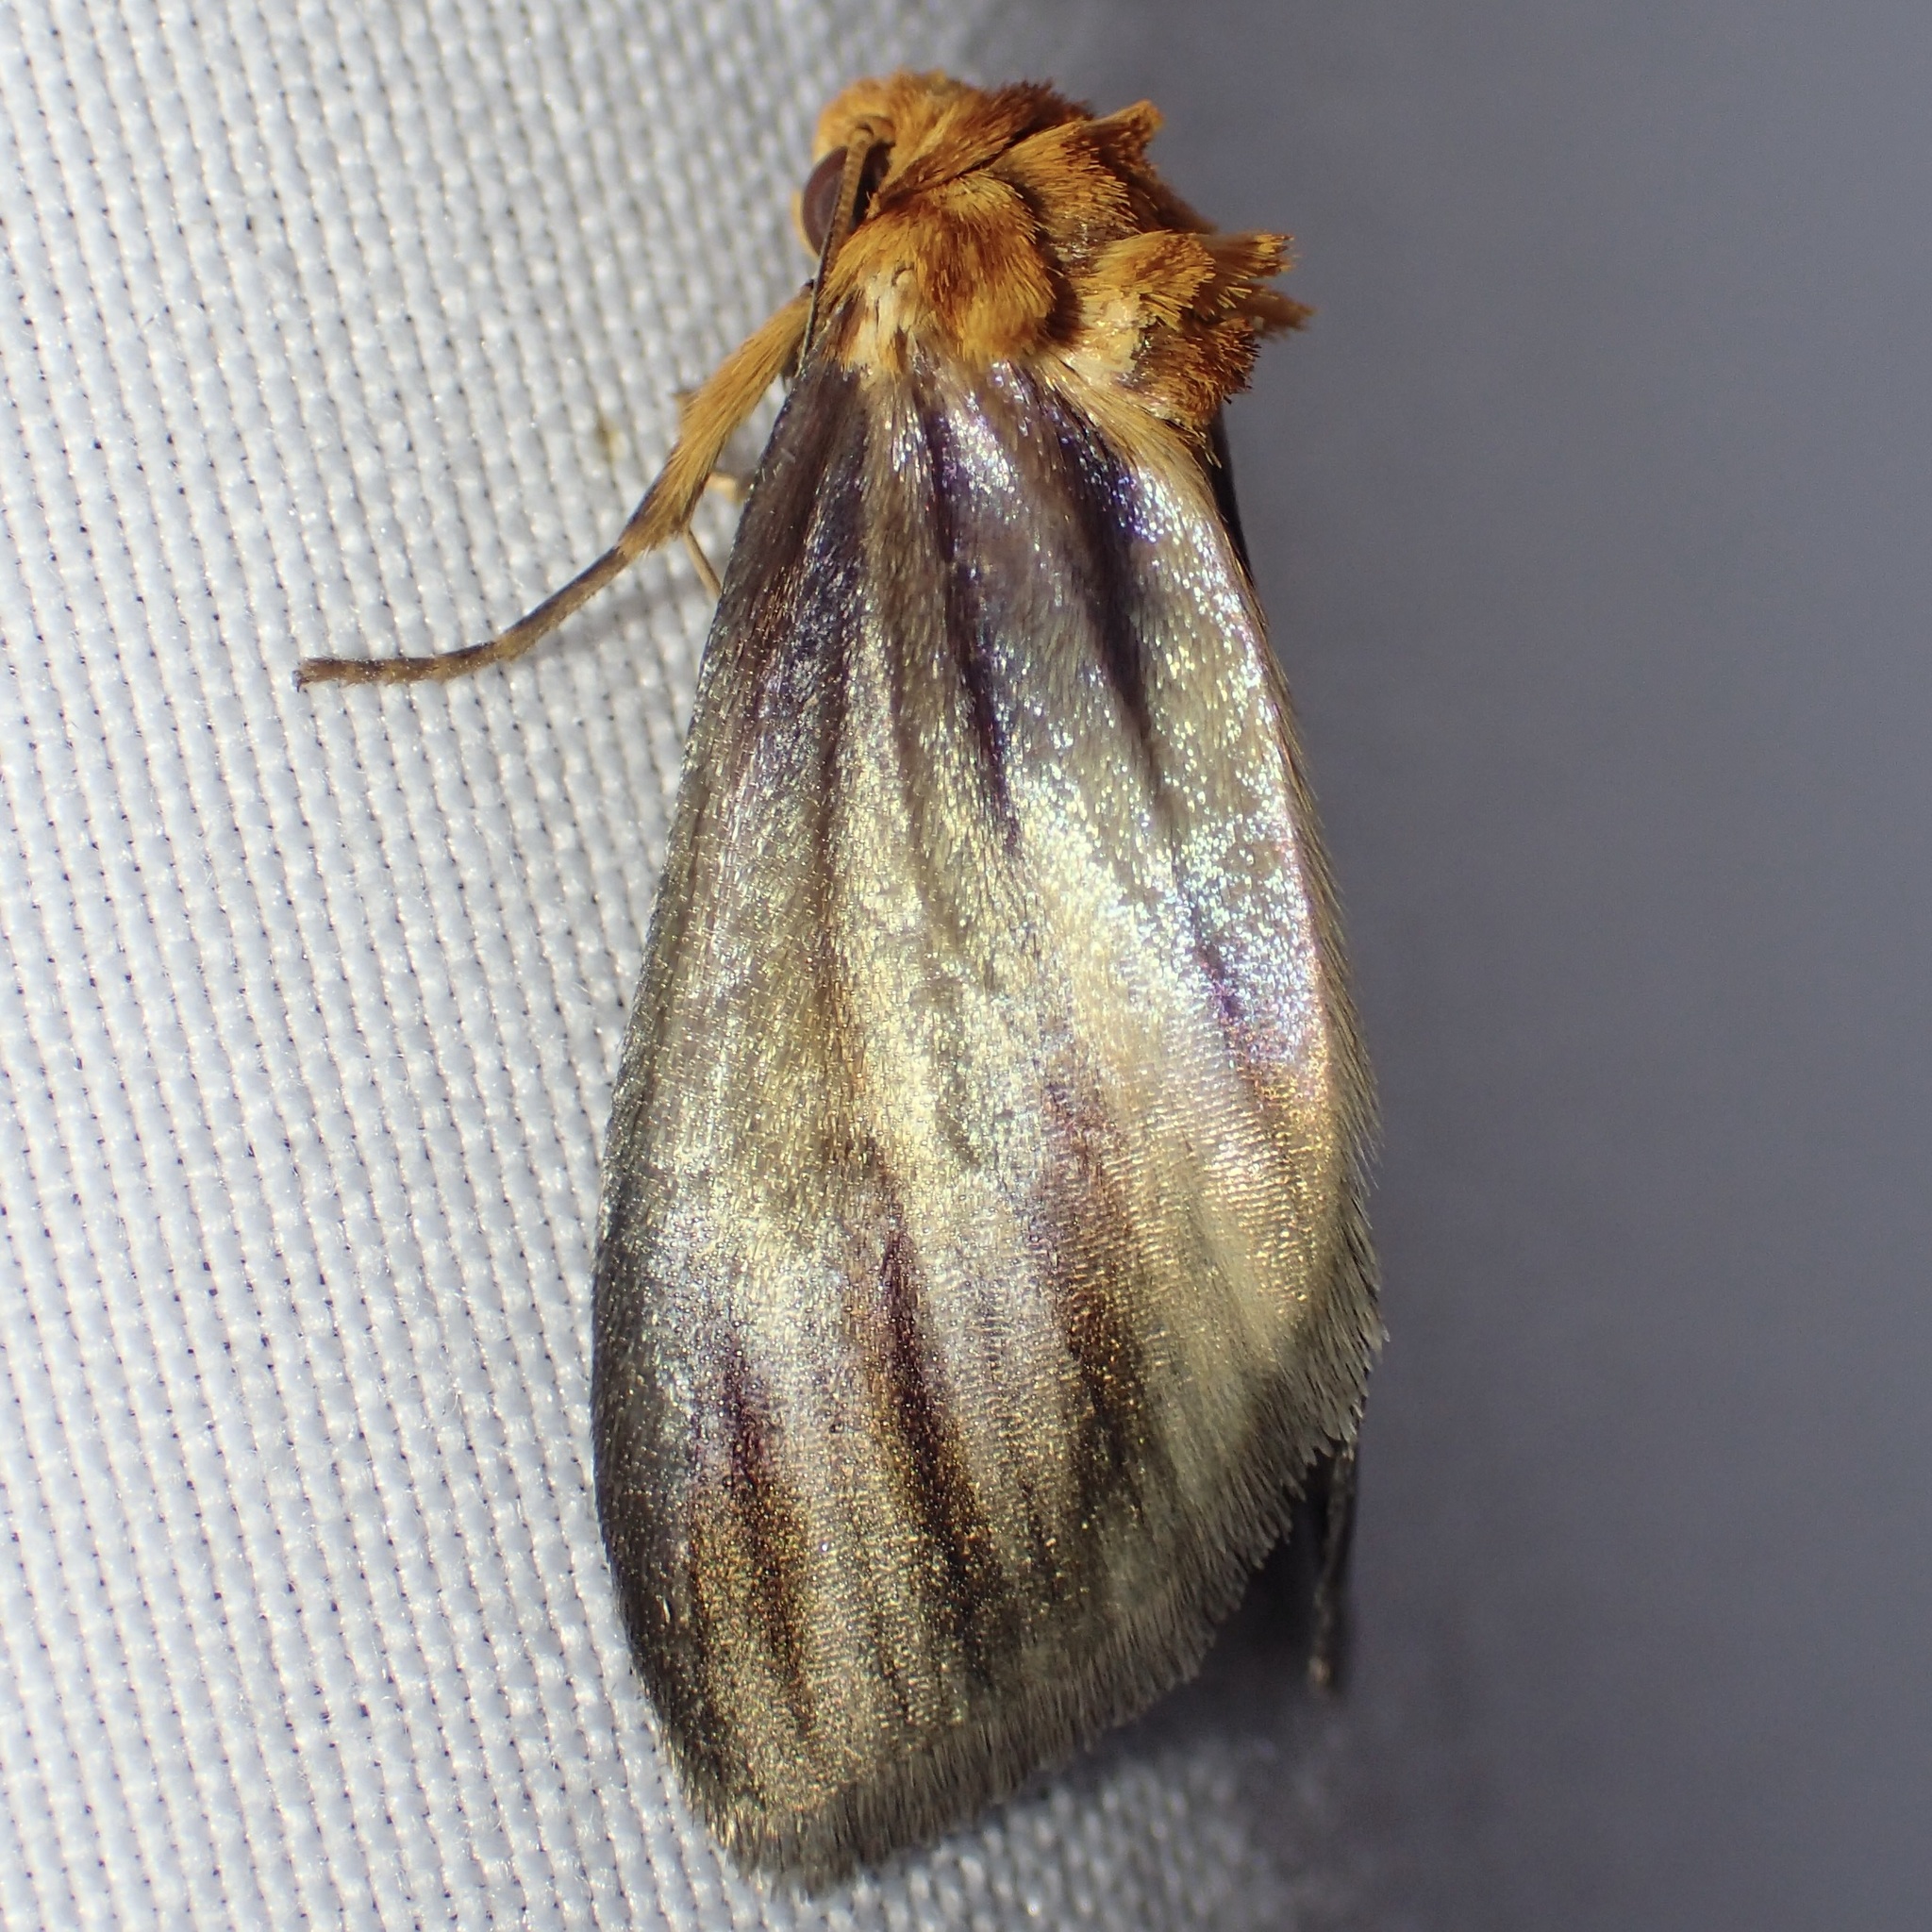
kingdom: Animalia
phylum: Arthropoda
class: Insecta
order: Lepidoptera
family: Noctuidae
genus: Antaplaga
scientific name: Antaplaga plesioglauca
